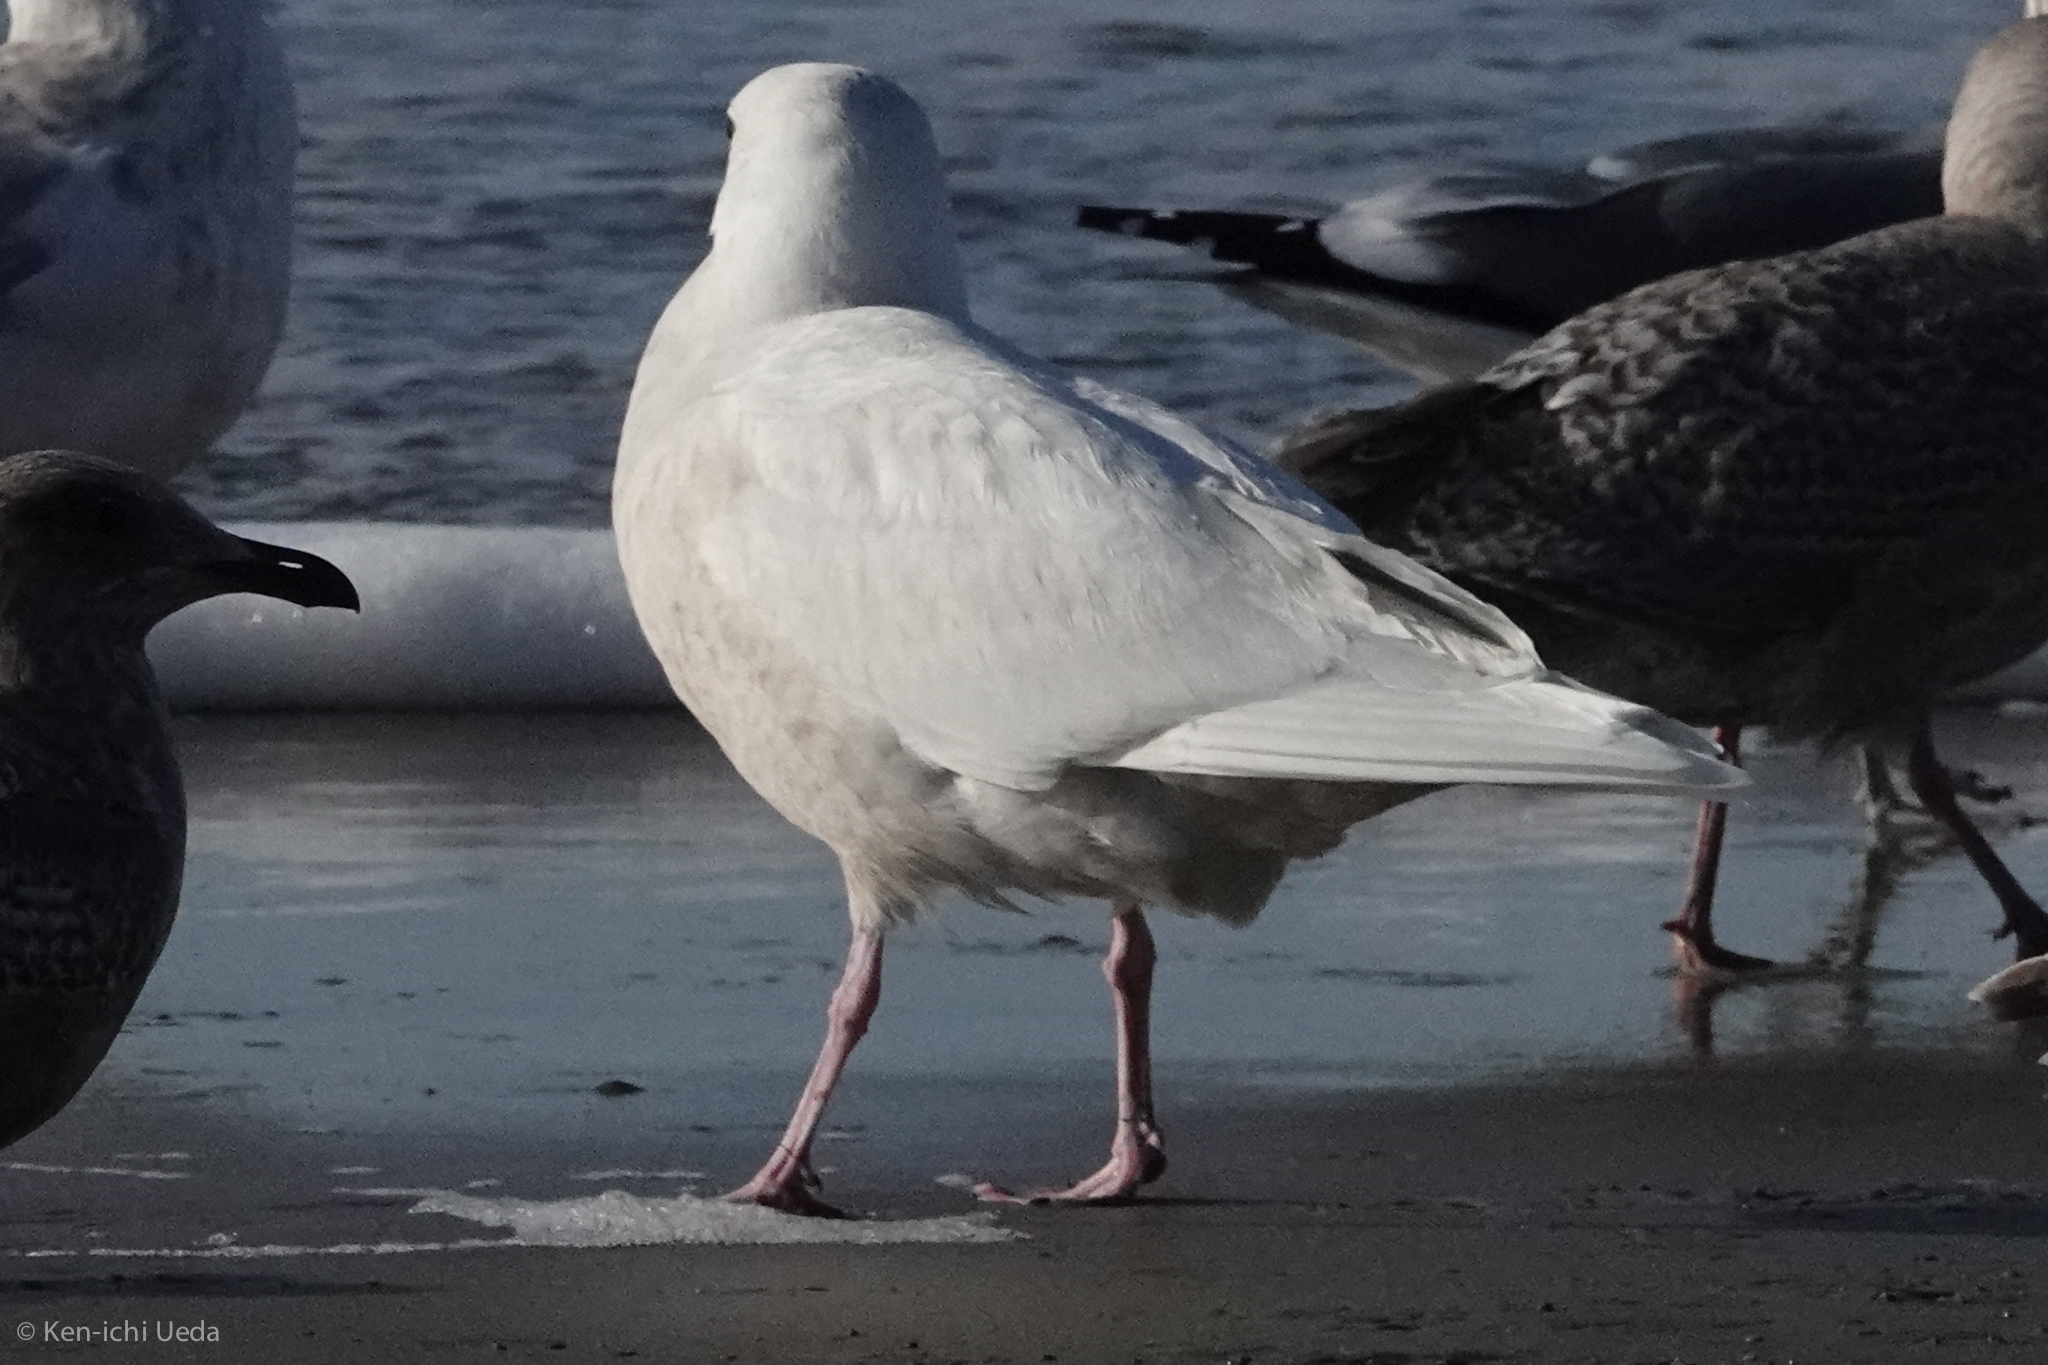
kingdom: Animalia
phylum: Chordata
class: Aves
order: Charadriiformes
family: Laridae
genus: Larus
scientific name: Larus hyperboreus
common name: Glaucous gull
